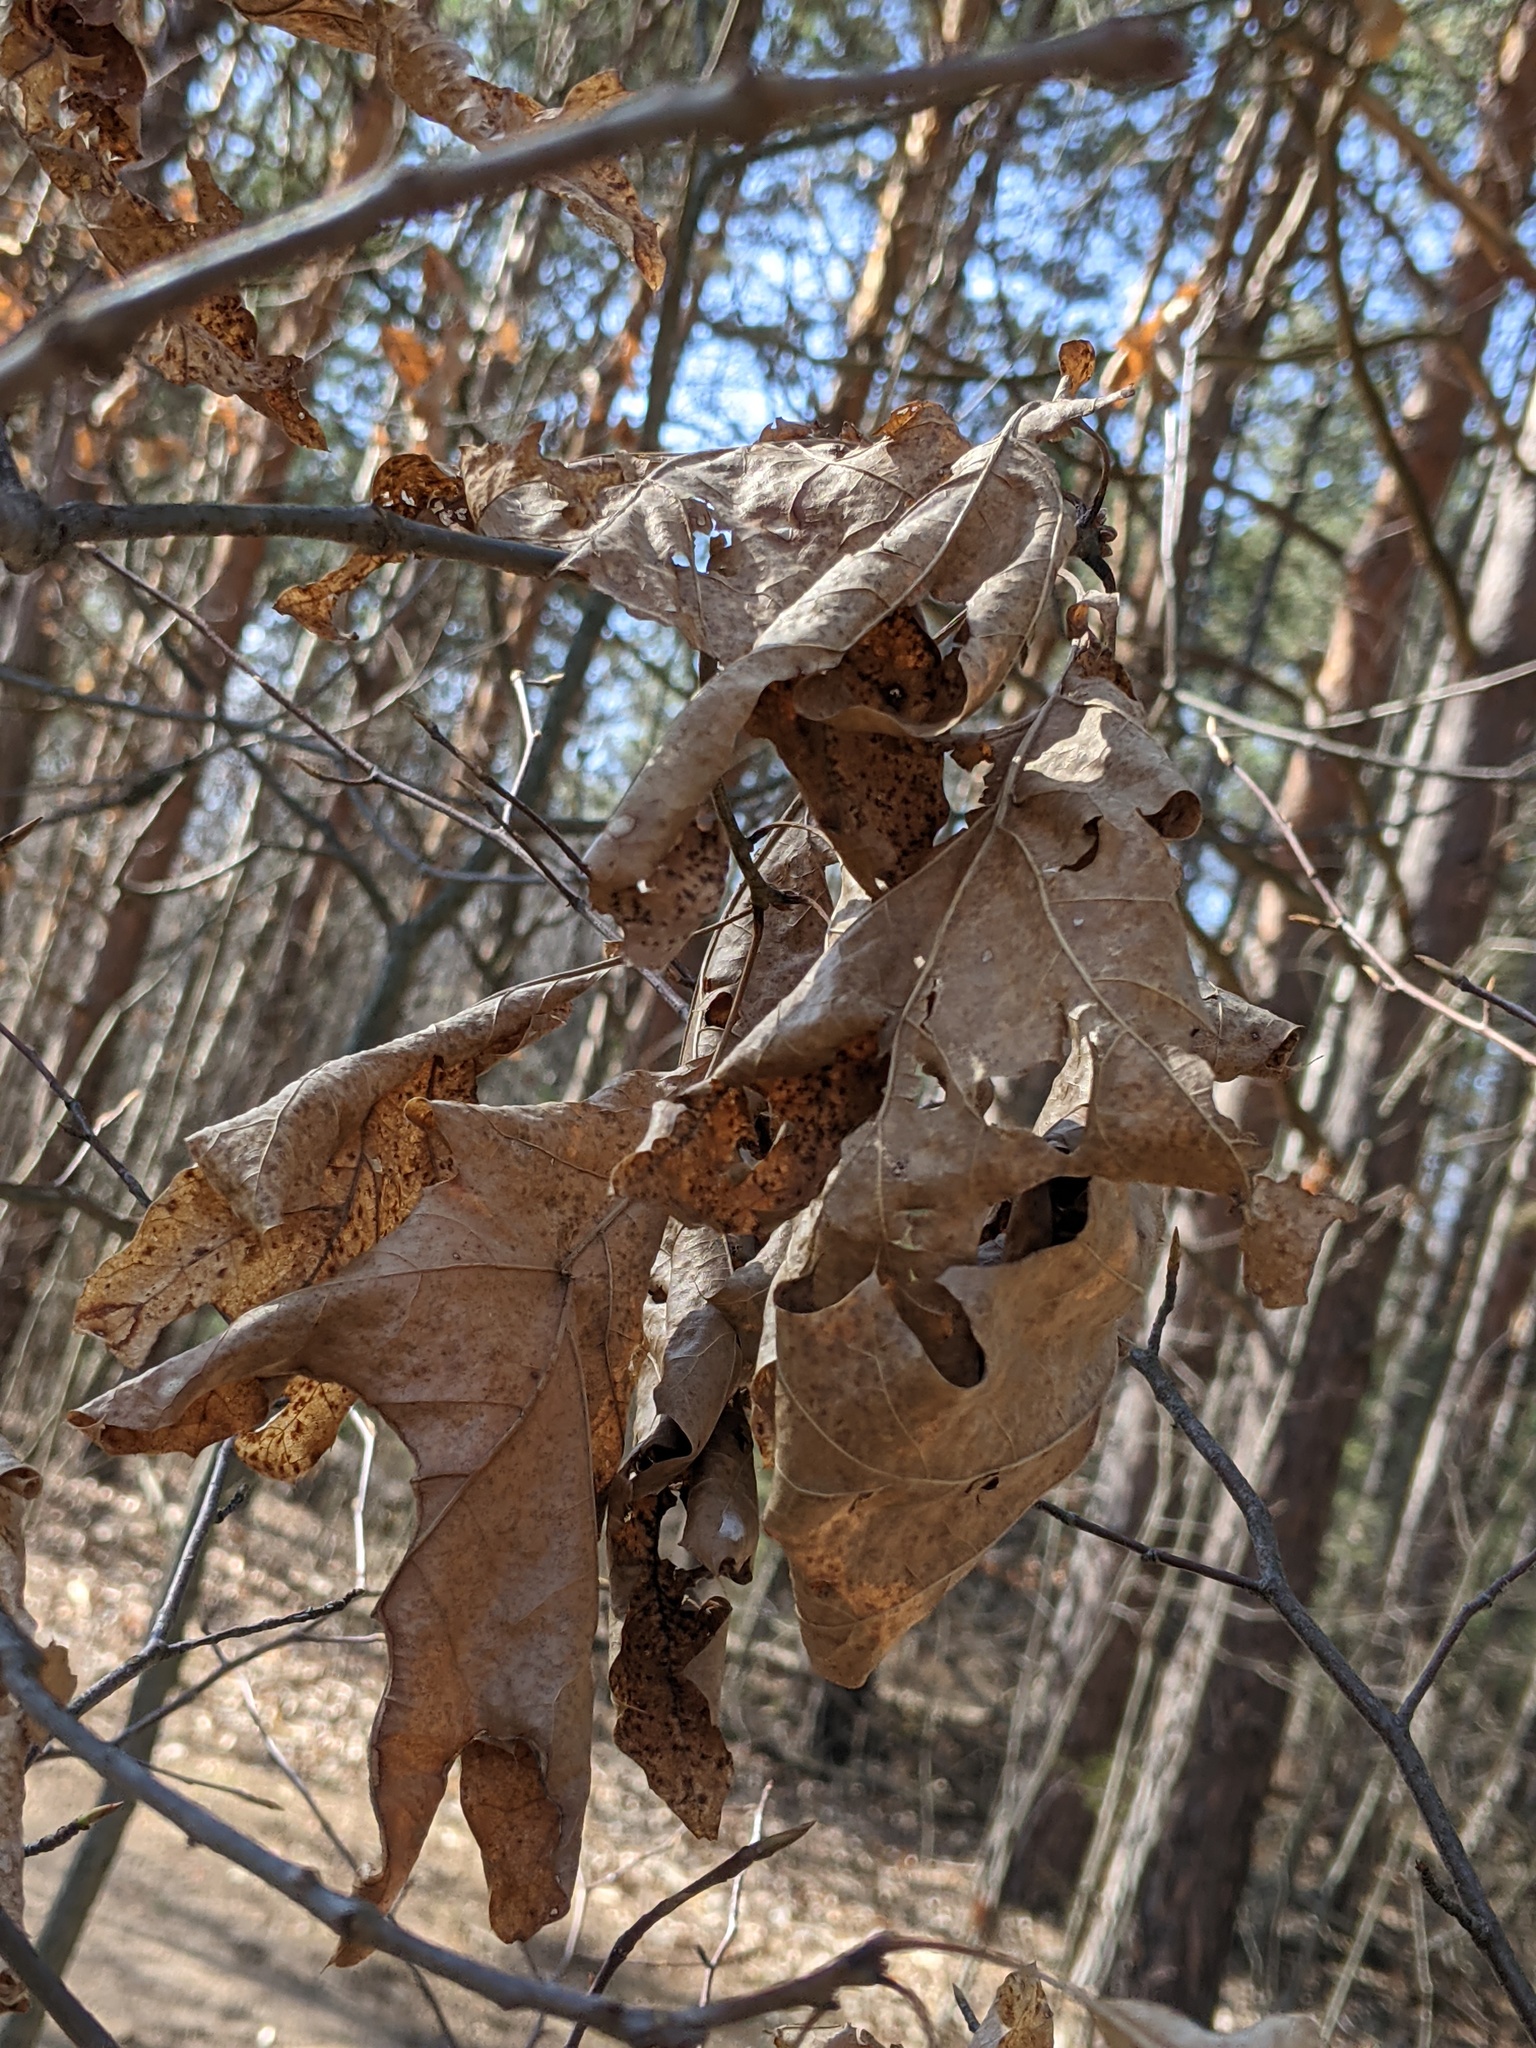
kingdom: Plantae
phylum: Tracheophyta
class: Magnoliopsida
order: Fagales
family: Fagaceae
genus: Quercus
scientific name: Quercus rubra
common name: Red oak
